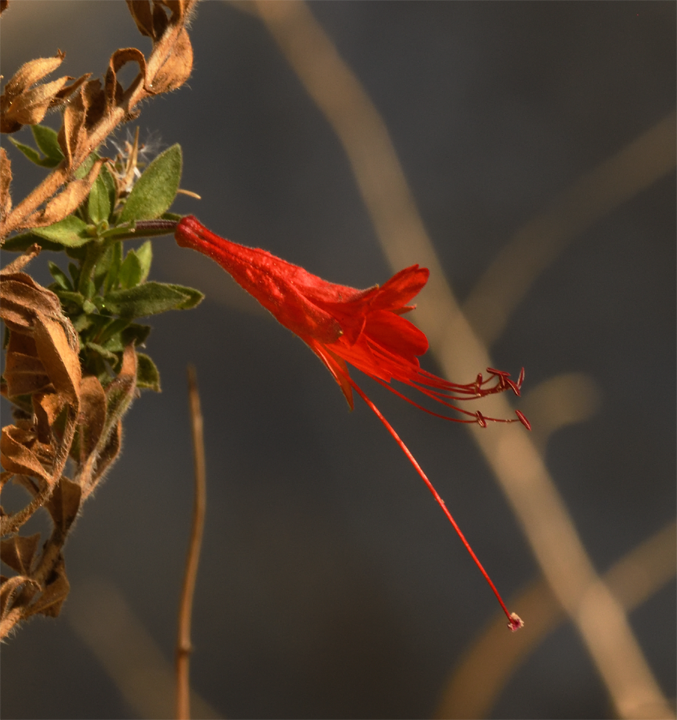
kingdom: Plantae
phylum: Tracheophyta
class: Magnoliopsida
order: Myrtales
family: Onagraceae
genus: Epilobium
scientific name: Epilobium canum
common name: California-fuchsia
